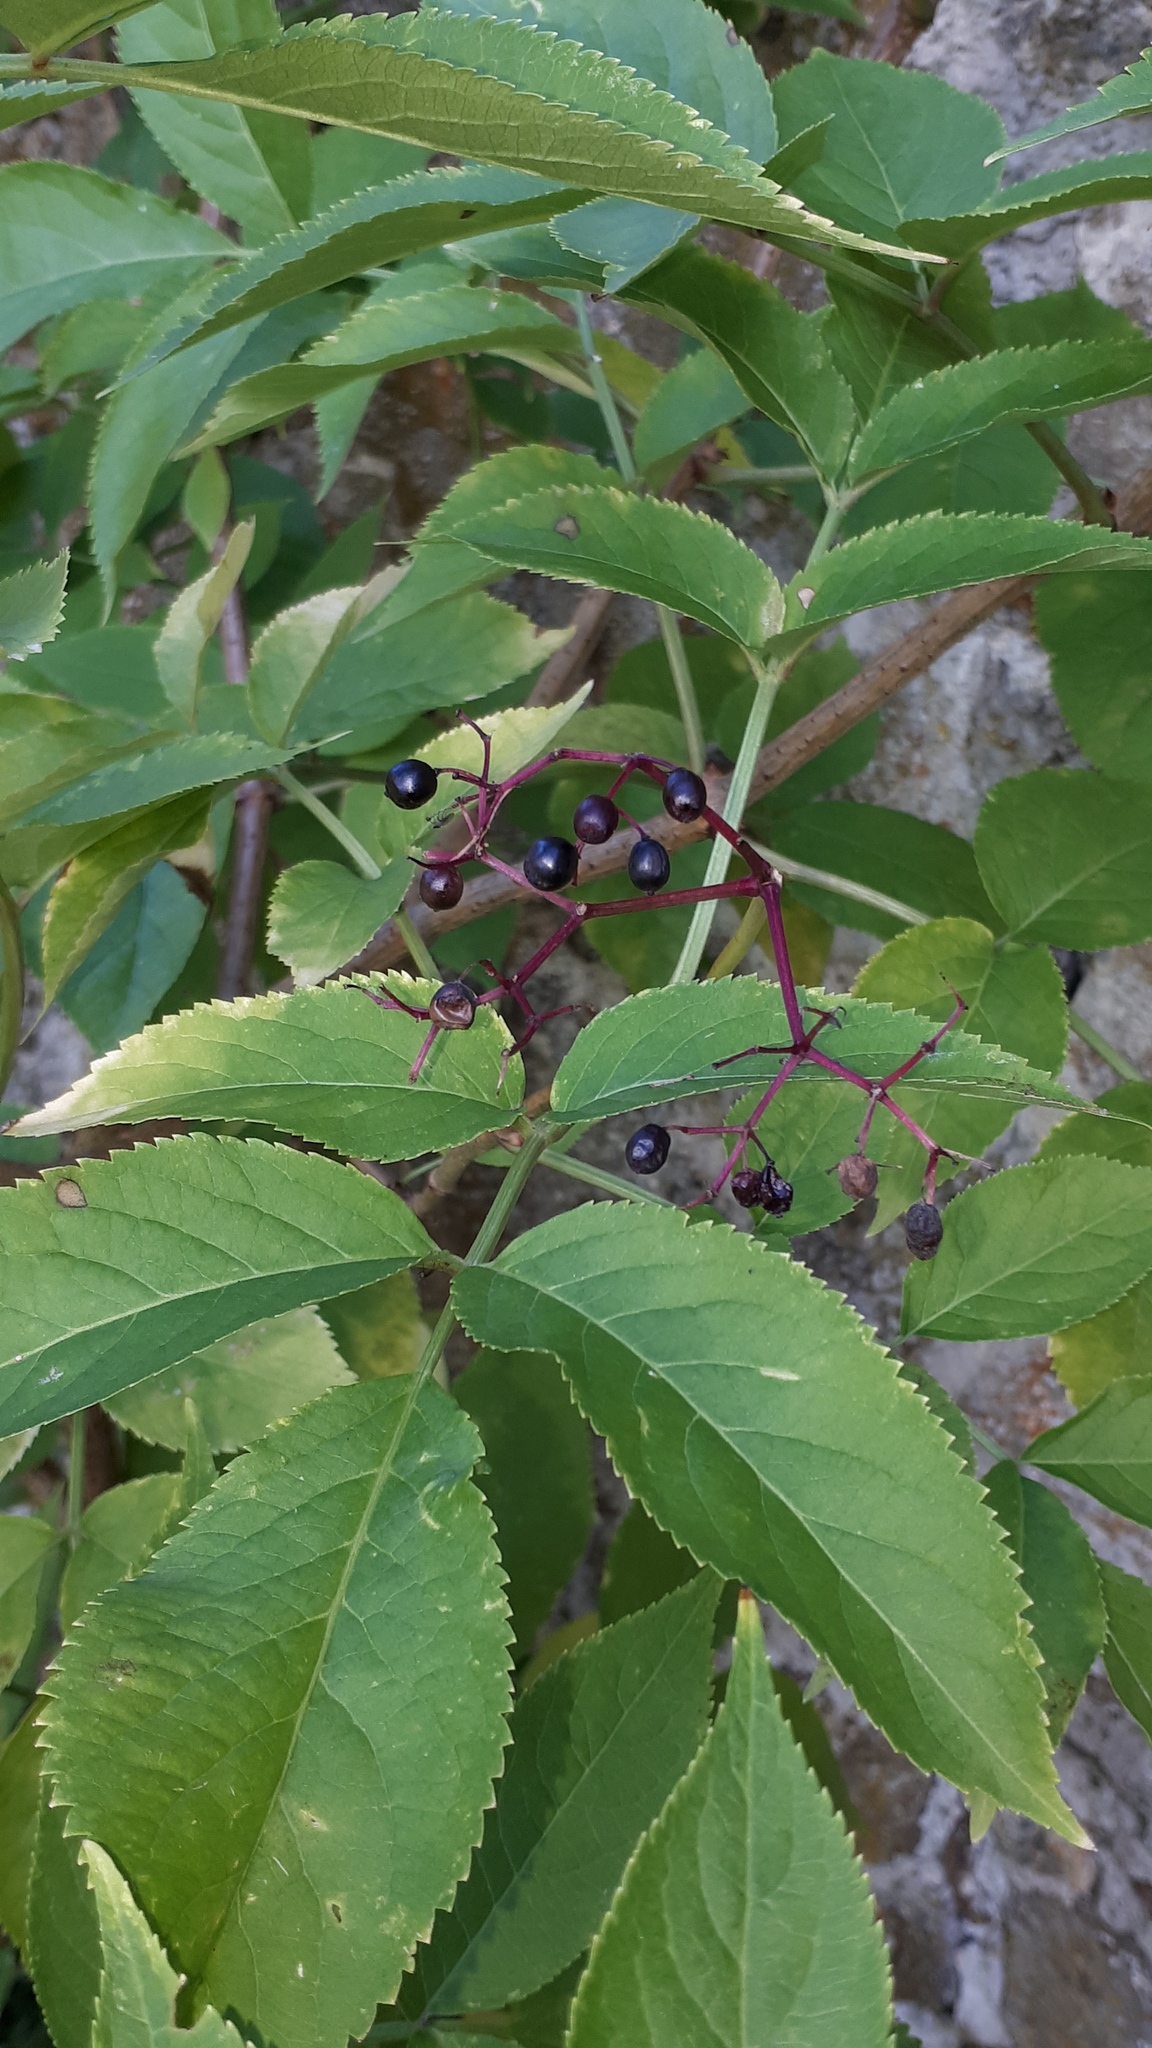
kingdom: Plantae
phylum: Tracheophyta
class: Magnoliopsida
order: Dipsacales
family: Viburnaceae
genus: Sambucus
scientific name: Sambucus nigra
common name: Elder
